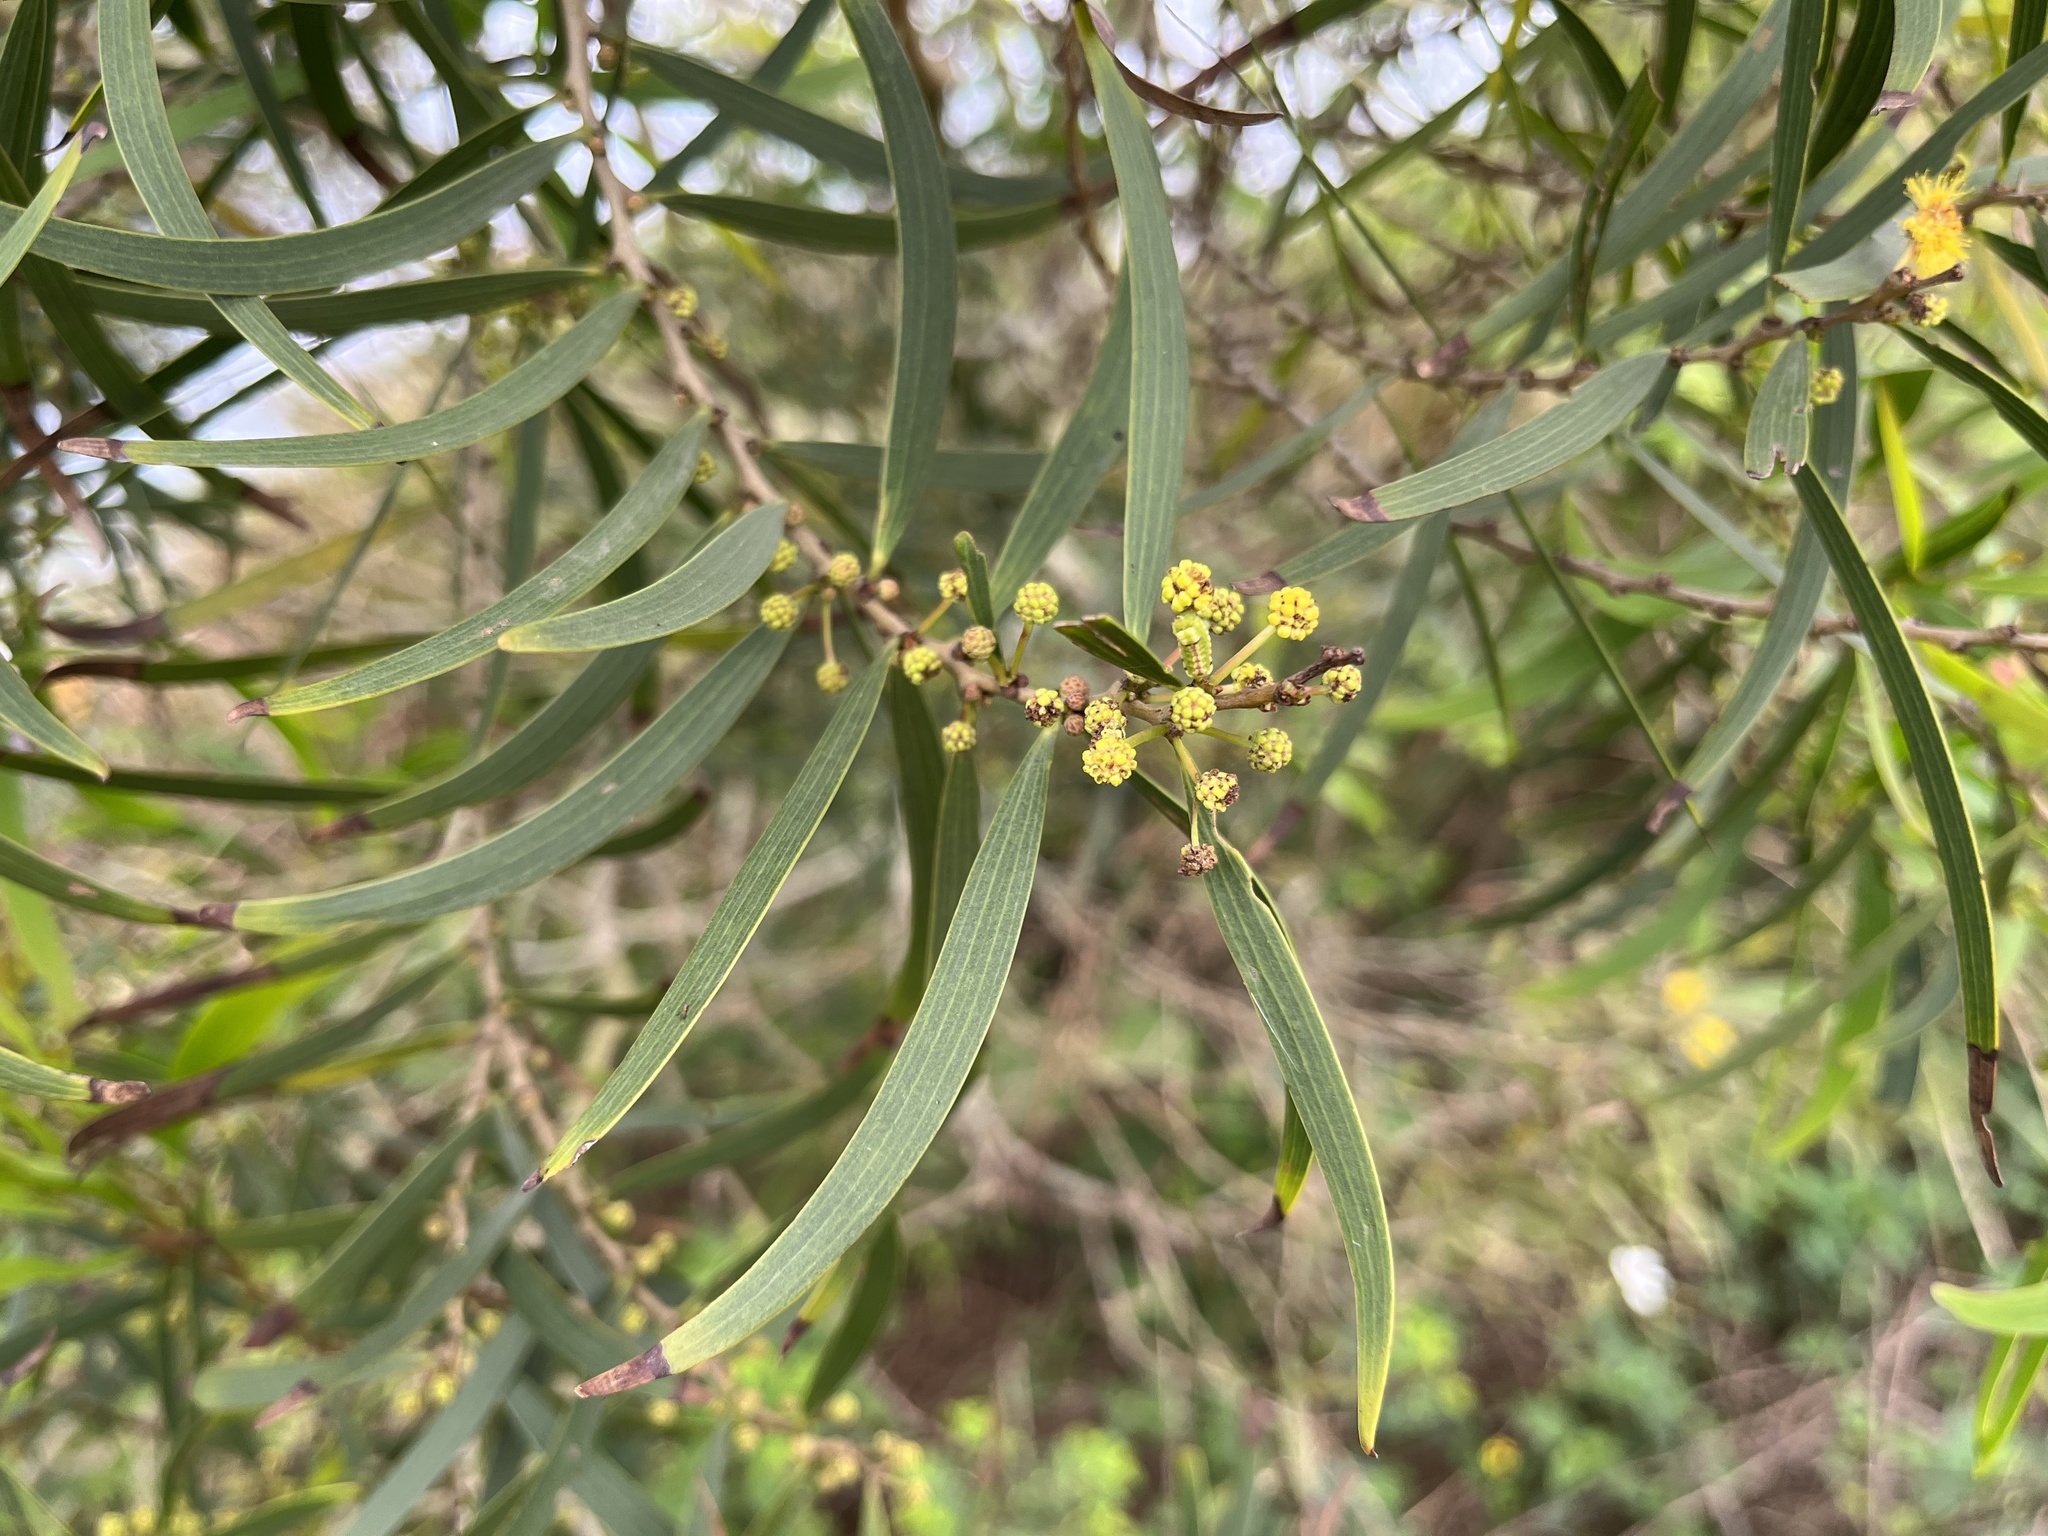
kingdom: Plantae
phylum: Tracheophyta
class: Magnoliopsida
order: Fabales
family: Fabaceae
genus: Acacia
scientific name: Acacia confusa
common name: Formosan koa
